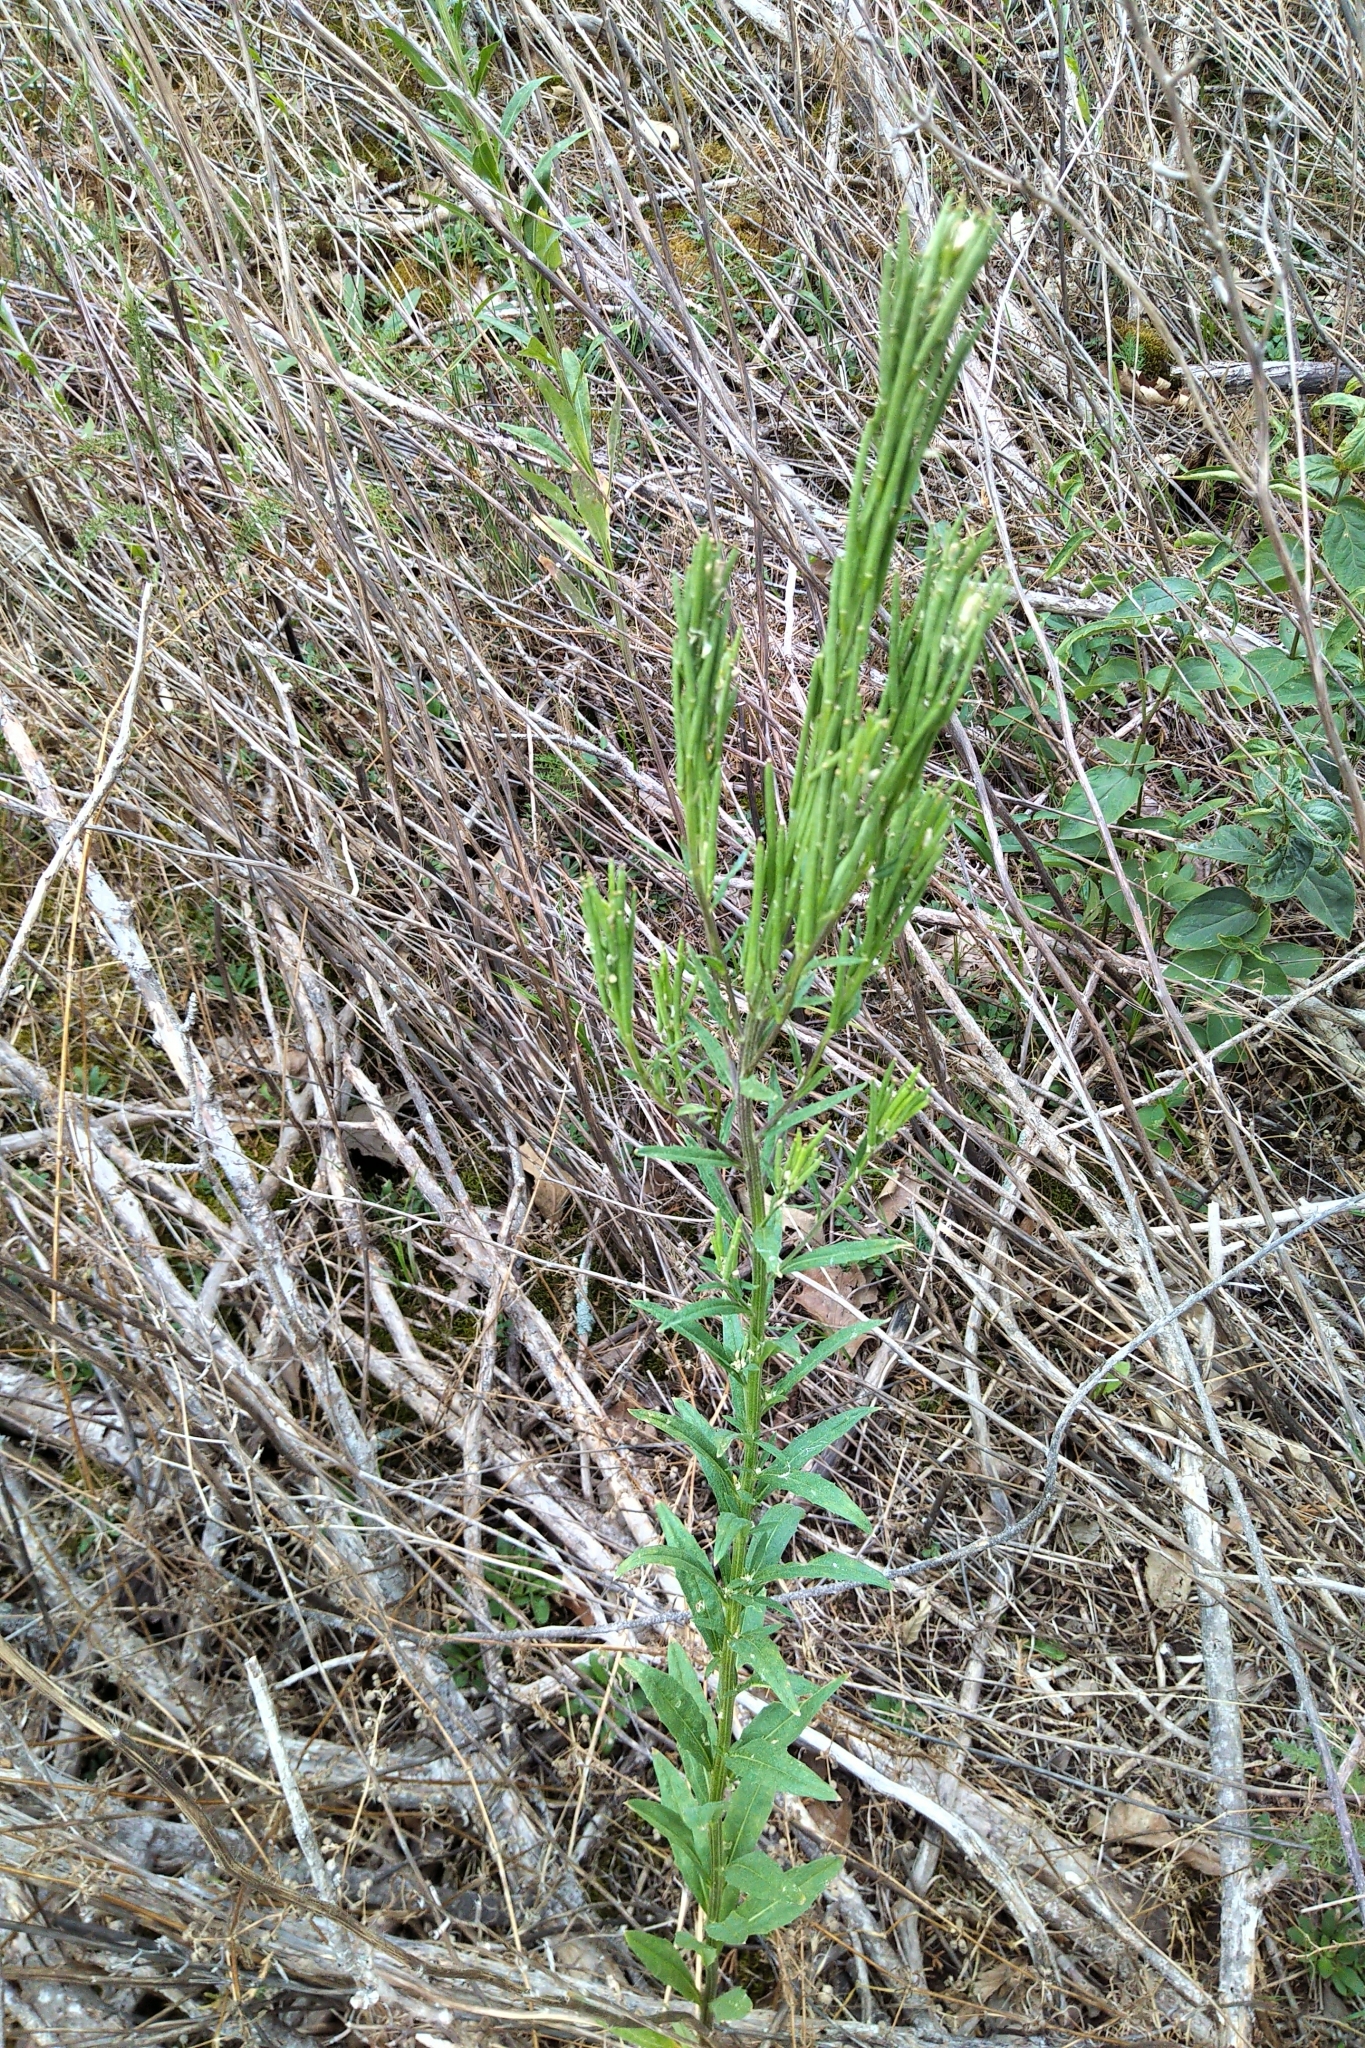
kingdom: Plantae
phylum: Tracheophyta
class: Magnoliopsida
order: Brassicales
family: Brassicaceae
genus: Erysimum
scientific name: Erysimum hieraciifolium
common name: European wallflower
